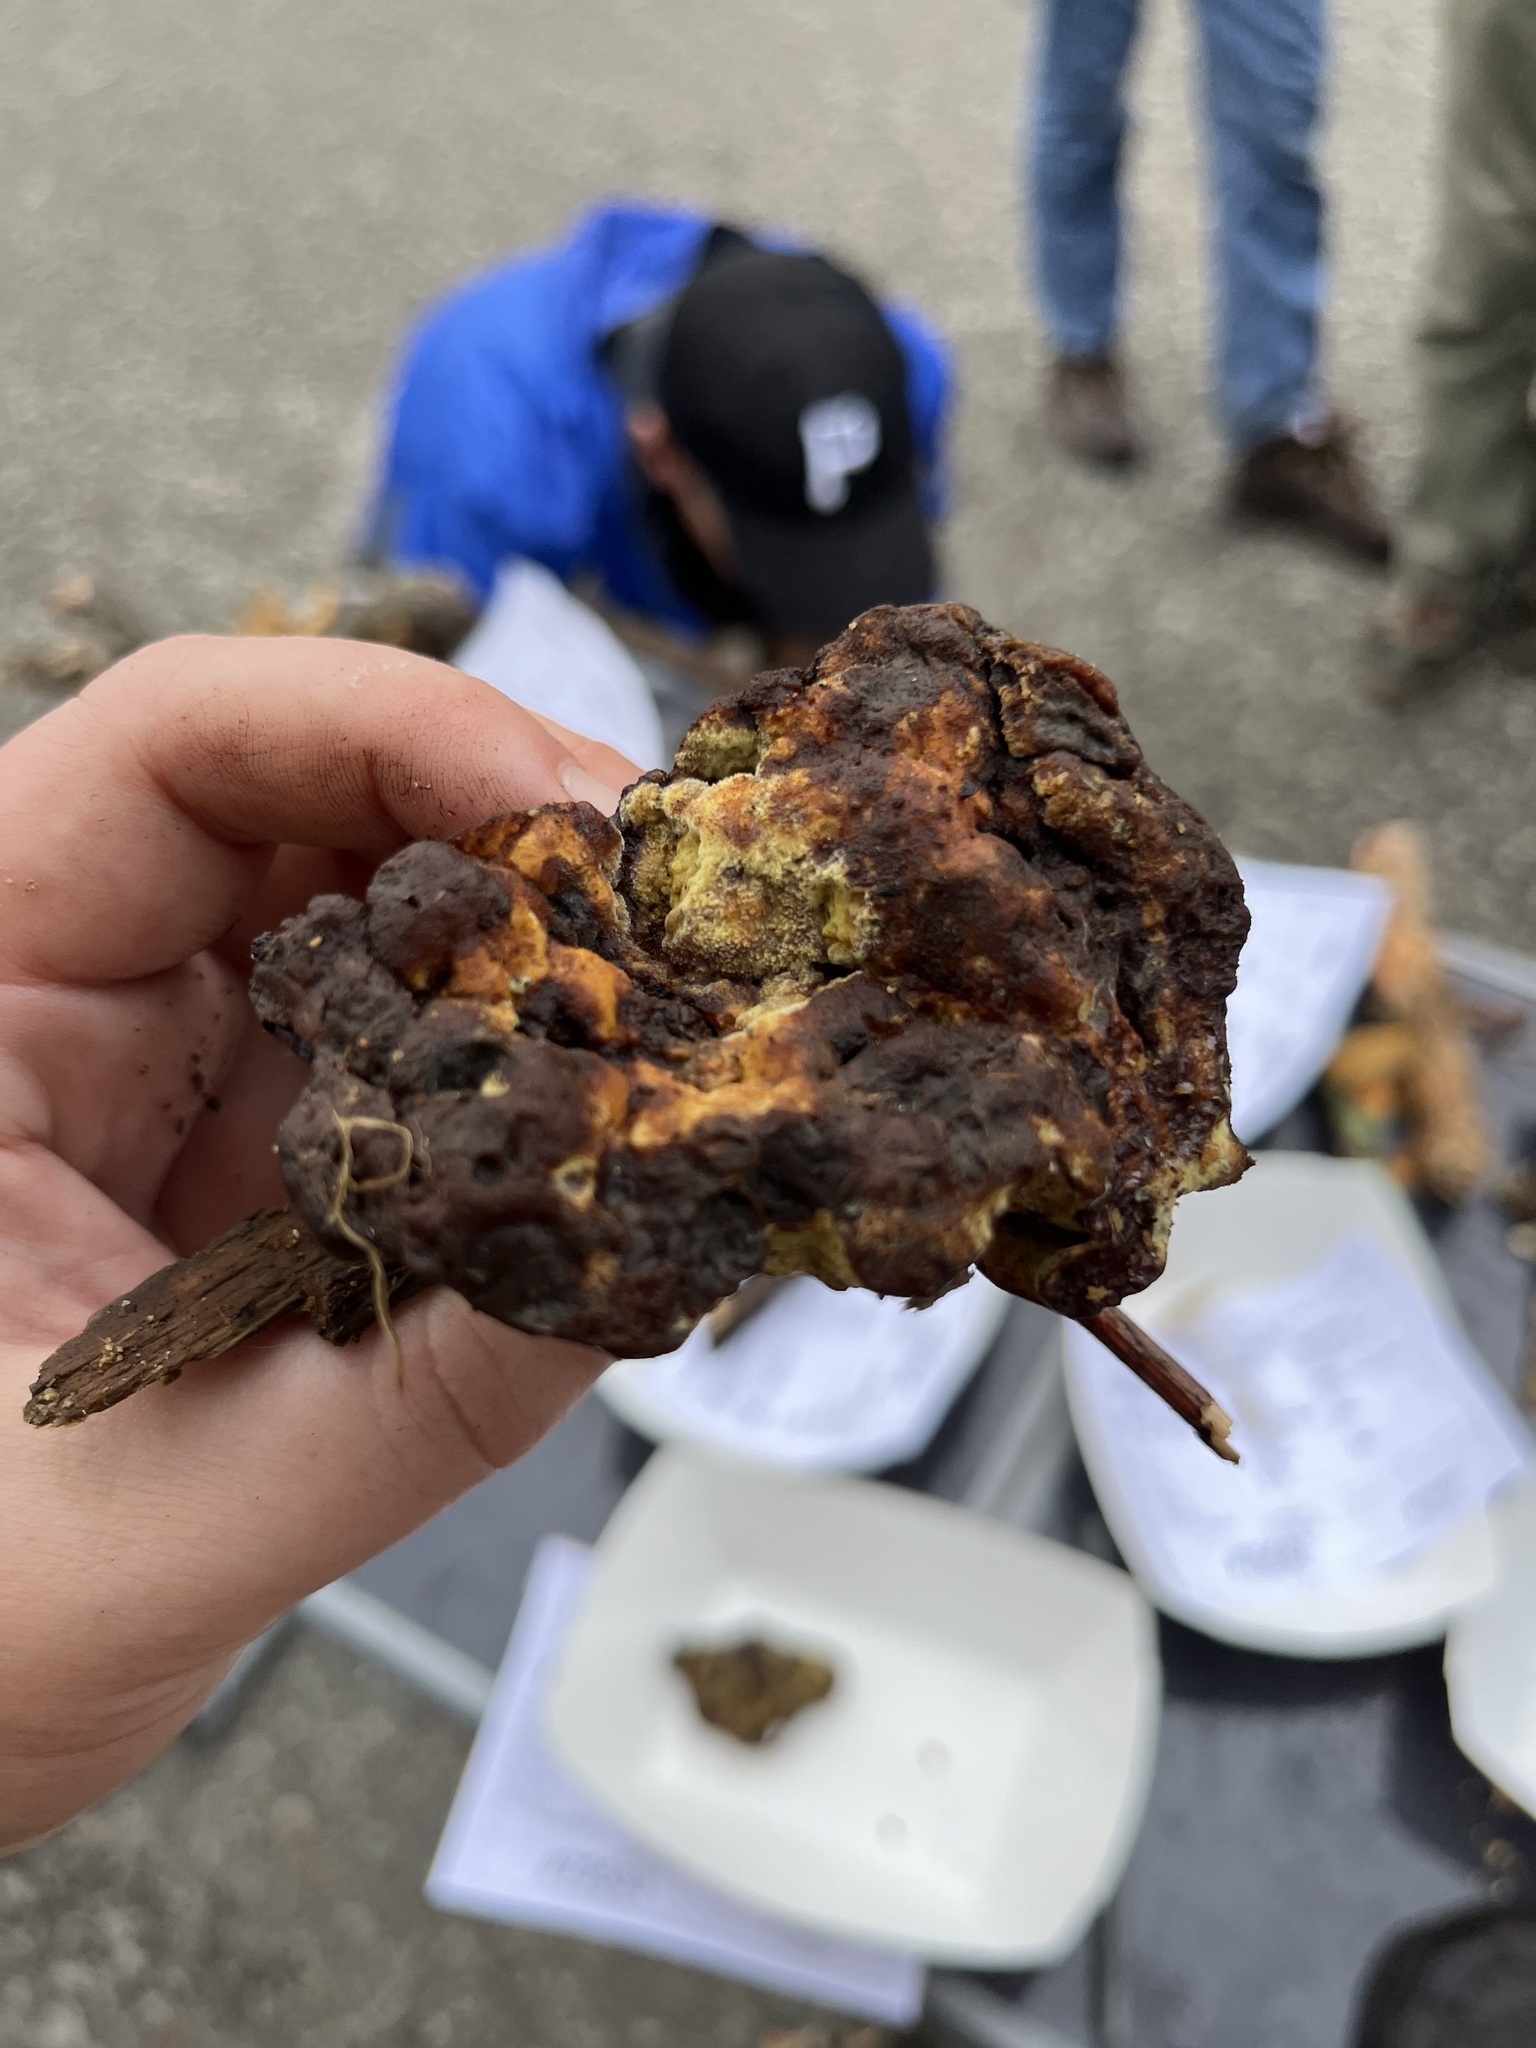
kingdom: Fungi
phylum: Basidiomycota
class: Agaricomycetes
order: Polyporales
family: Laetiporaceae
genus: Phaeolus
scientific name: Phaeolus schweinitzii
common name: Dyer's mazegill
